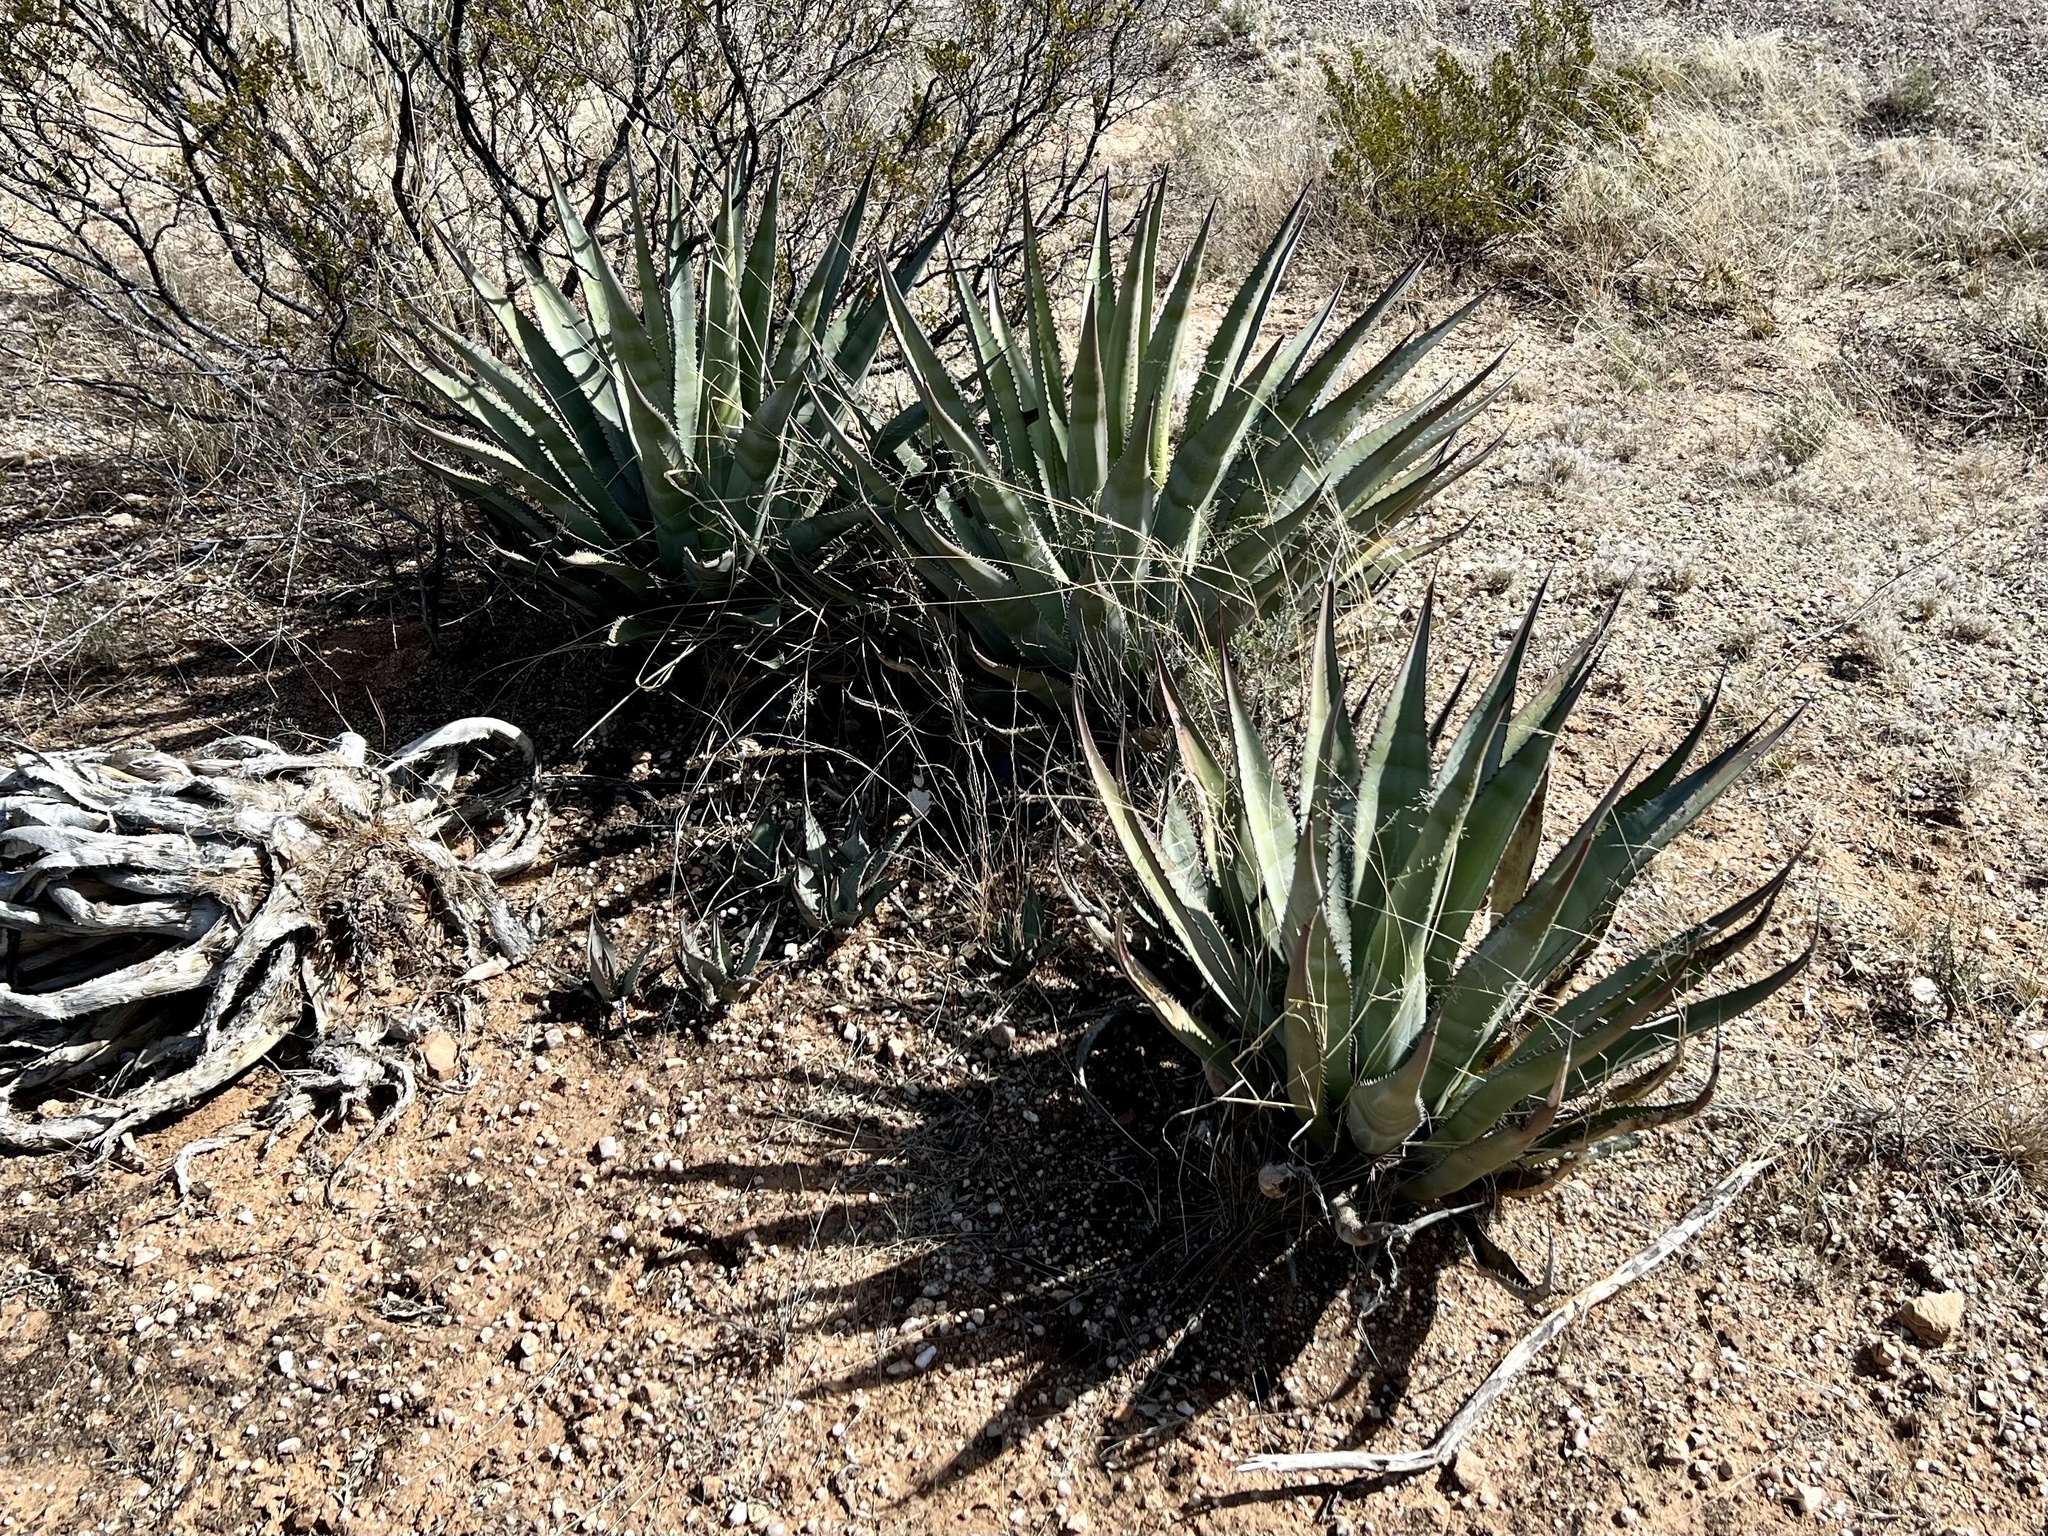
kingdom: Plantae
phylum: Tracheophyta
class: Liliopsida
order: Asparagales
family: Asparagaceae
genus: Agave
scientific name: Agave palmeri
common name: Palmer agave
